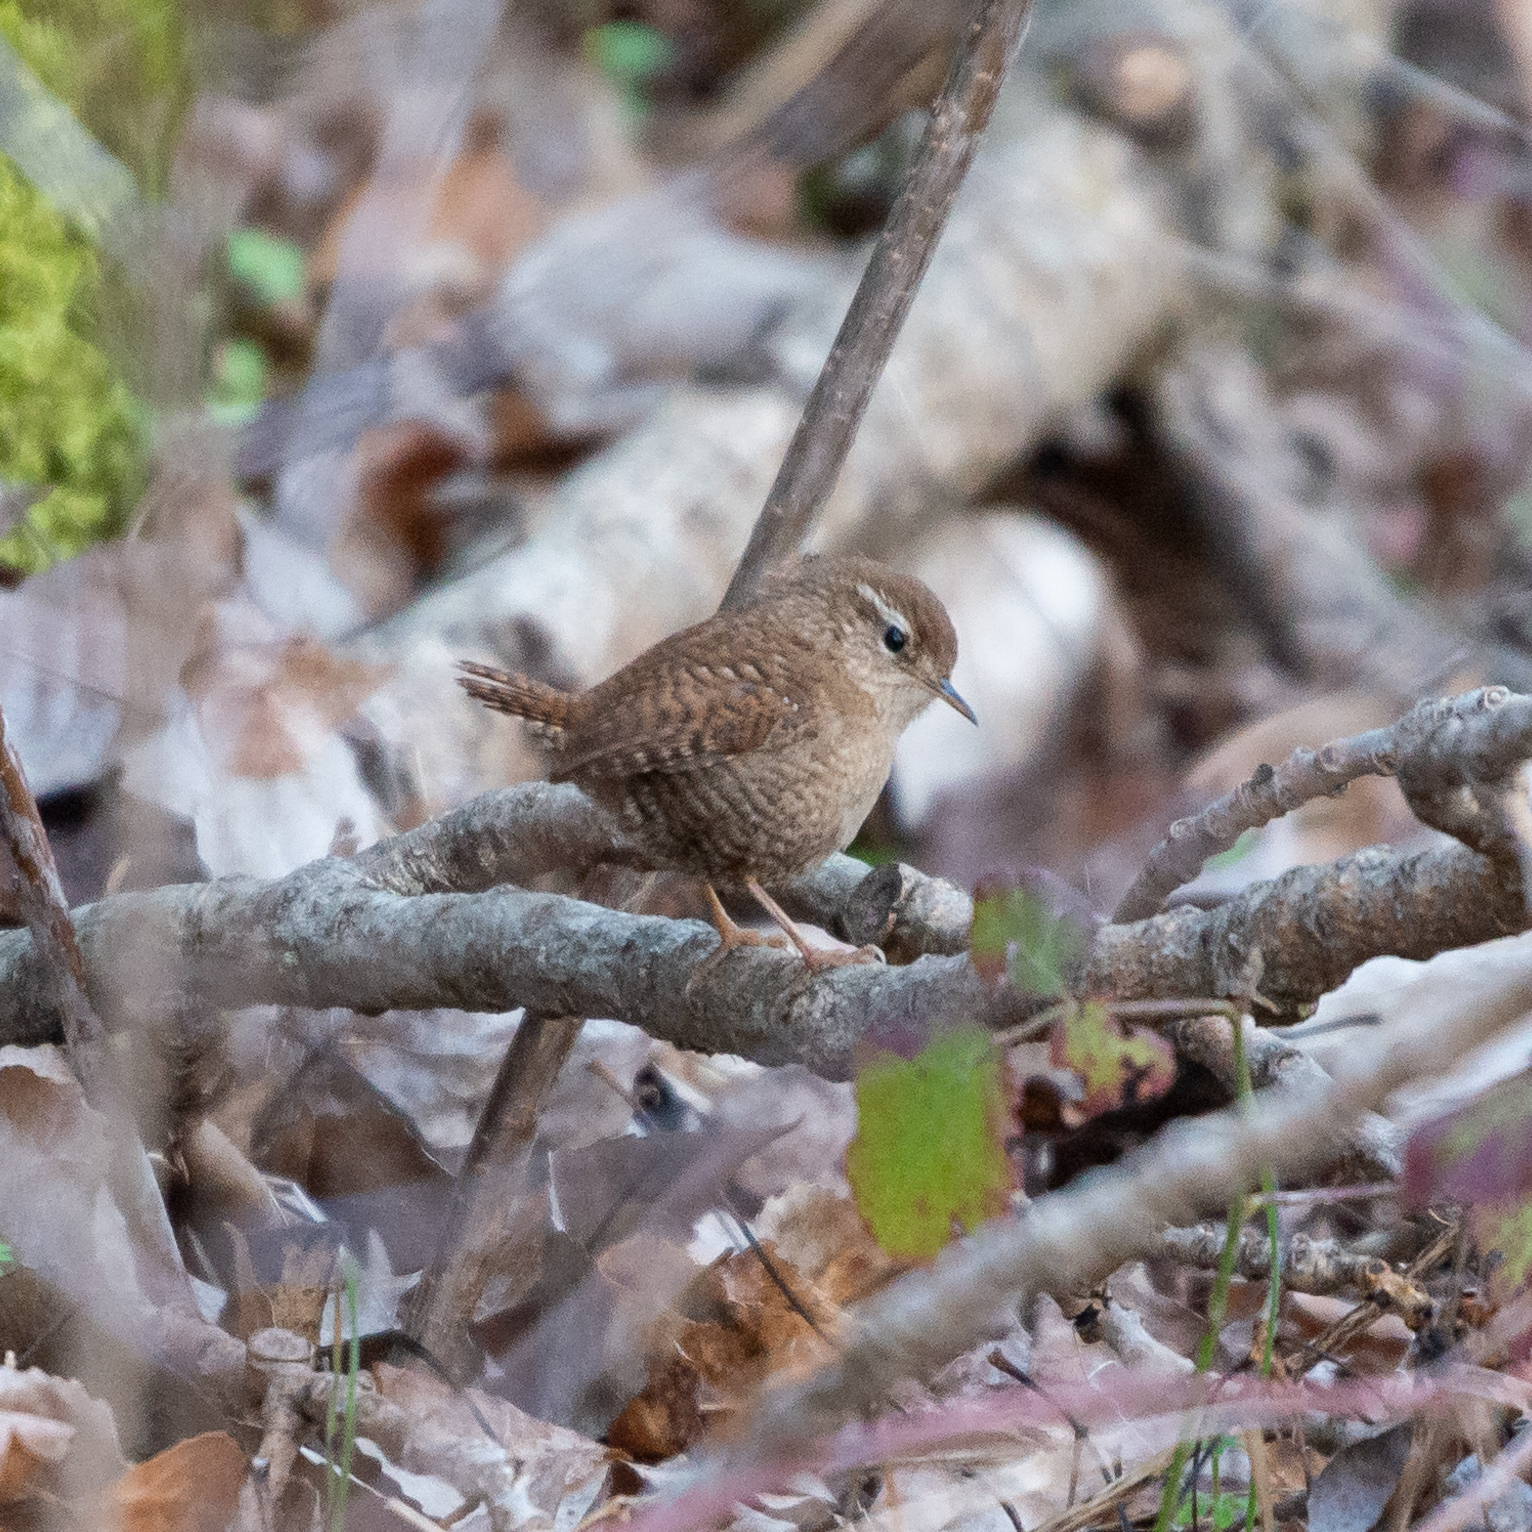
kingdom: Animalia
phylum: Chordata
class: Aves
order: Passeriformes
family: Troglodytidae
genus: Troglodytes
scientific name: Troglodytes troglodytes
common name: Eurasian wren
